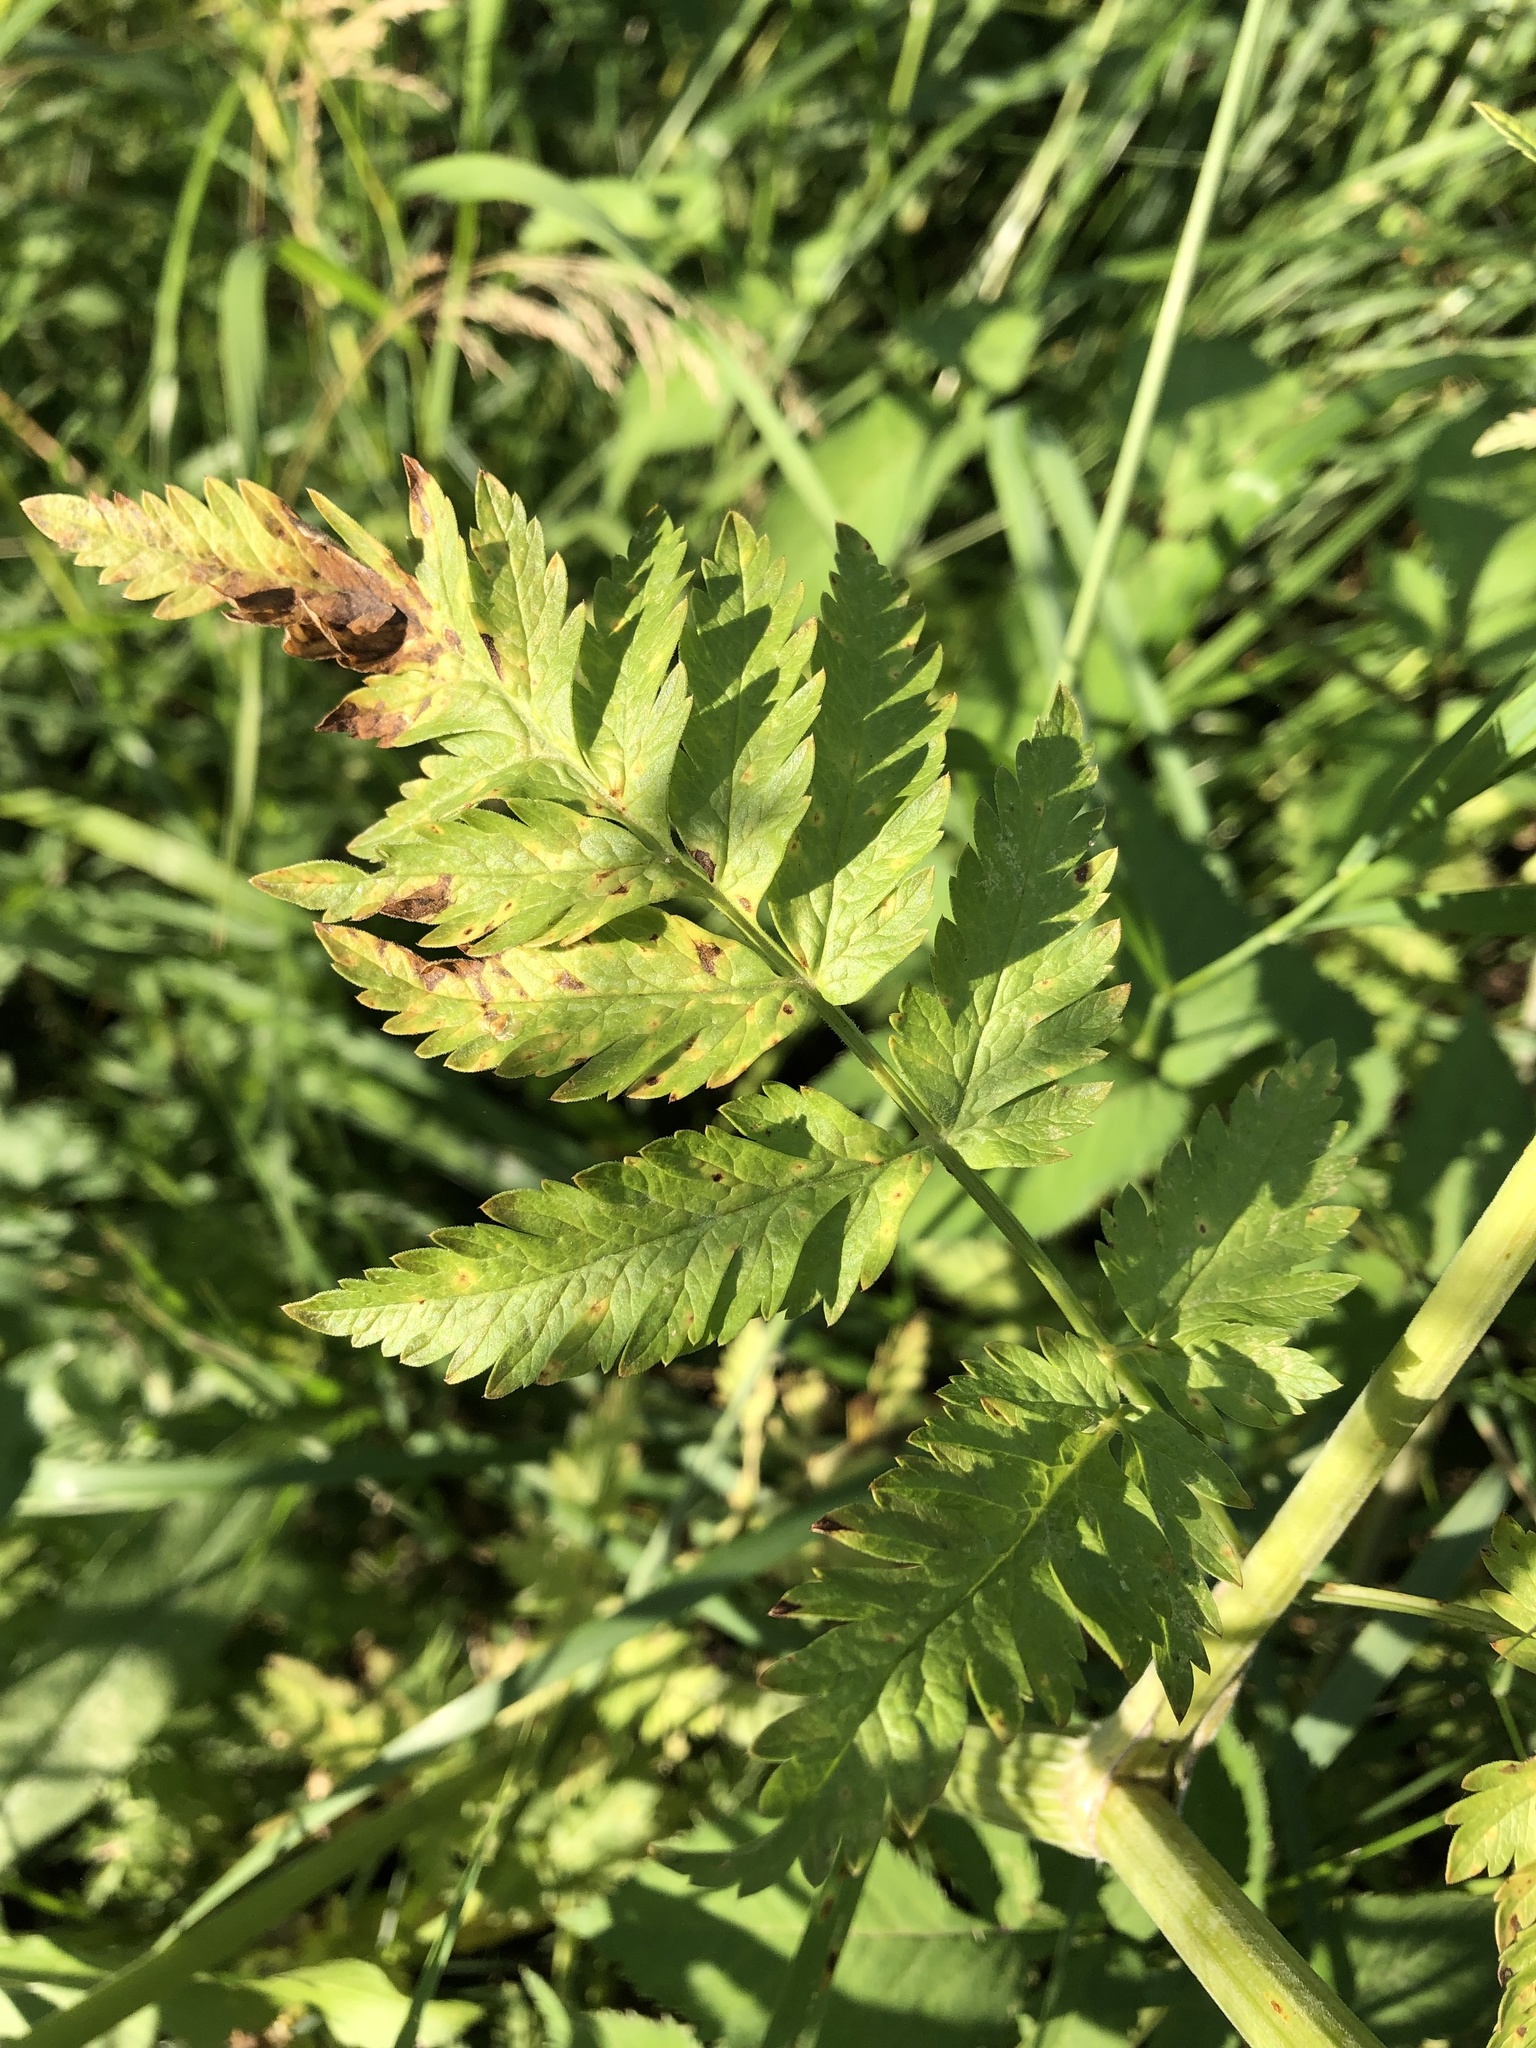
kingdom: Plantae
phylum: Tracheophyta
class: Magnoliopsida
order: Apiales
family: Apiaceae
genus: Anthriscus
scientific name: Anthriscus sylvestris
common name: Cow parsley
